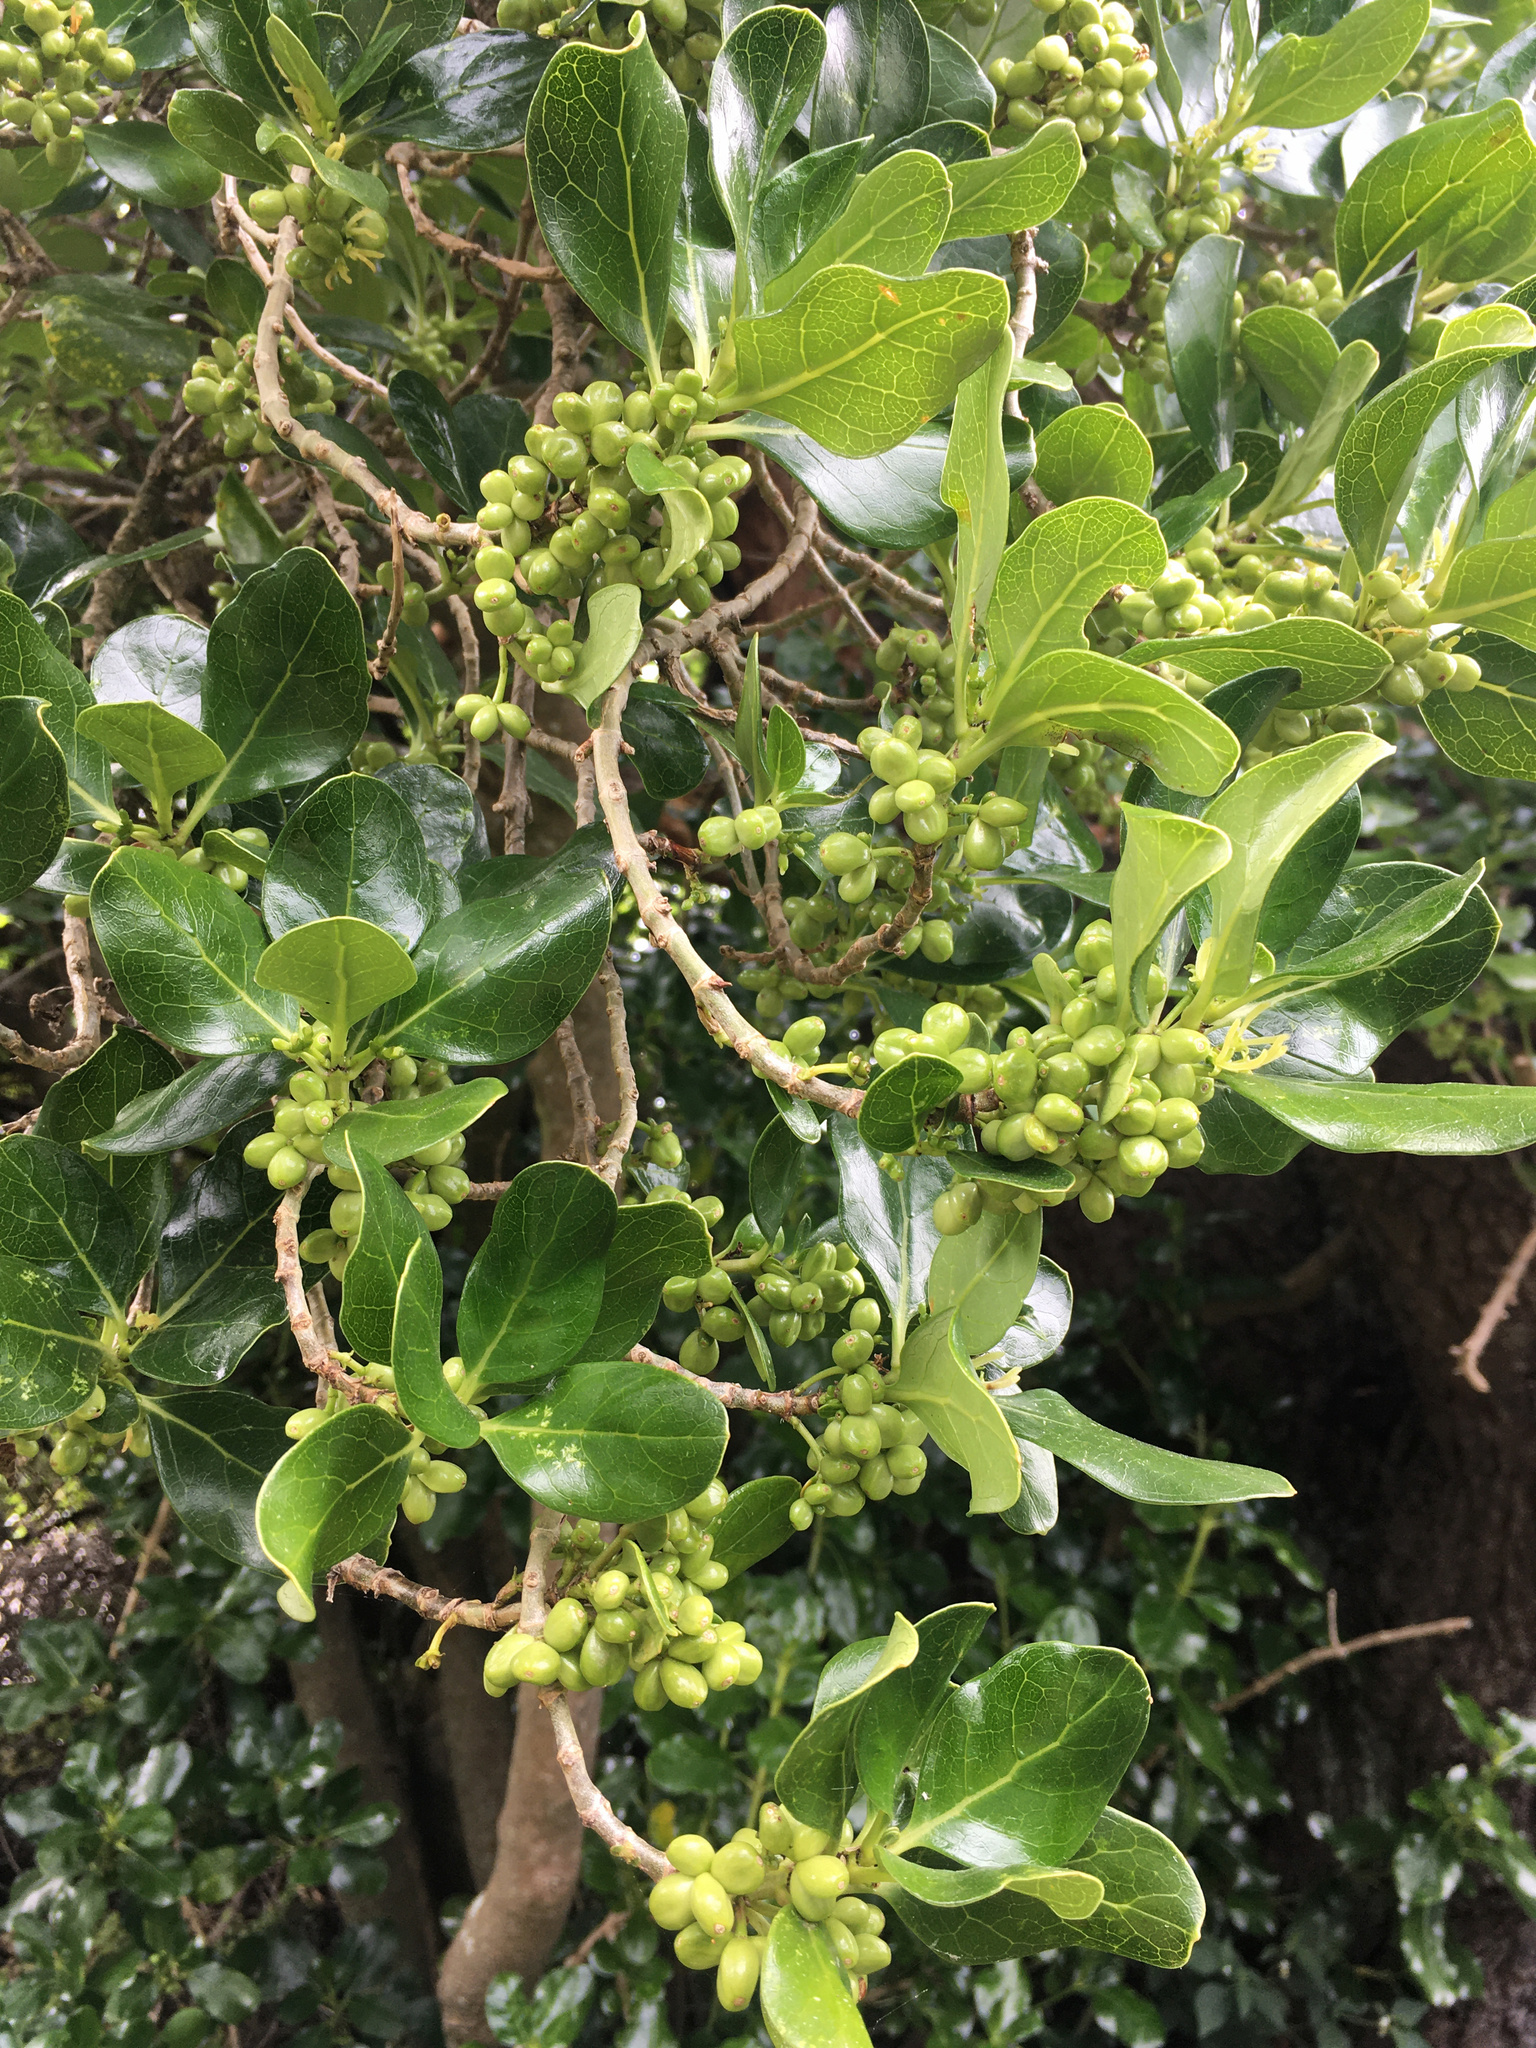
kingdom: Plantae
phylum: Tracheophyta
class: Magnoliopsida
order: Gentianales
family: Rubiaceae
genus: Coprosma
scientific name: Coprosma repens
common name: Tree bedstraw
